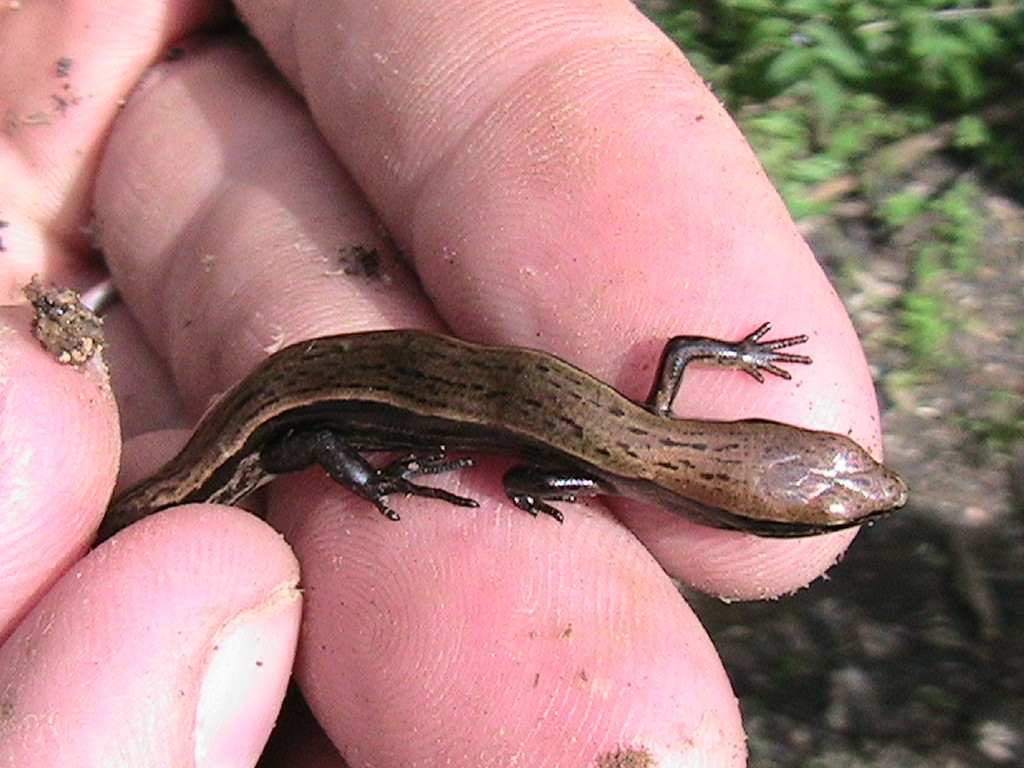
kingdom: Animalia
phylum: Chordata
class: Squamata
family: Scincidae
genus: Scincella
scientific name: Scincella lateralis
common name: Ground skink
